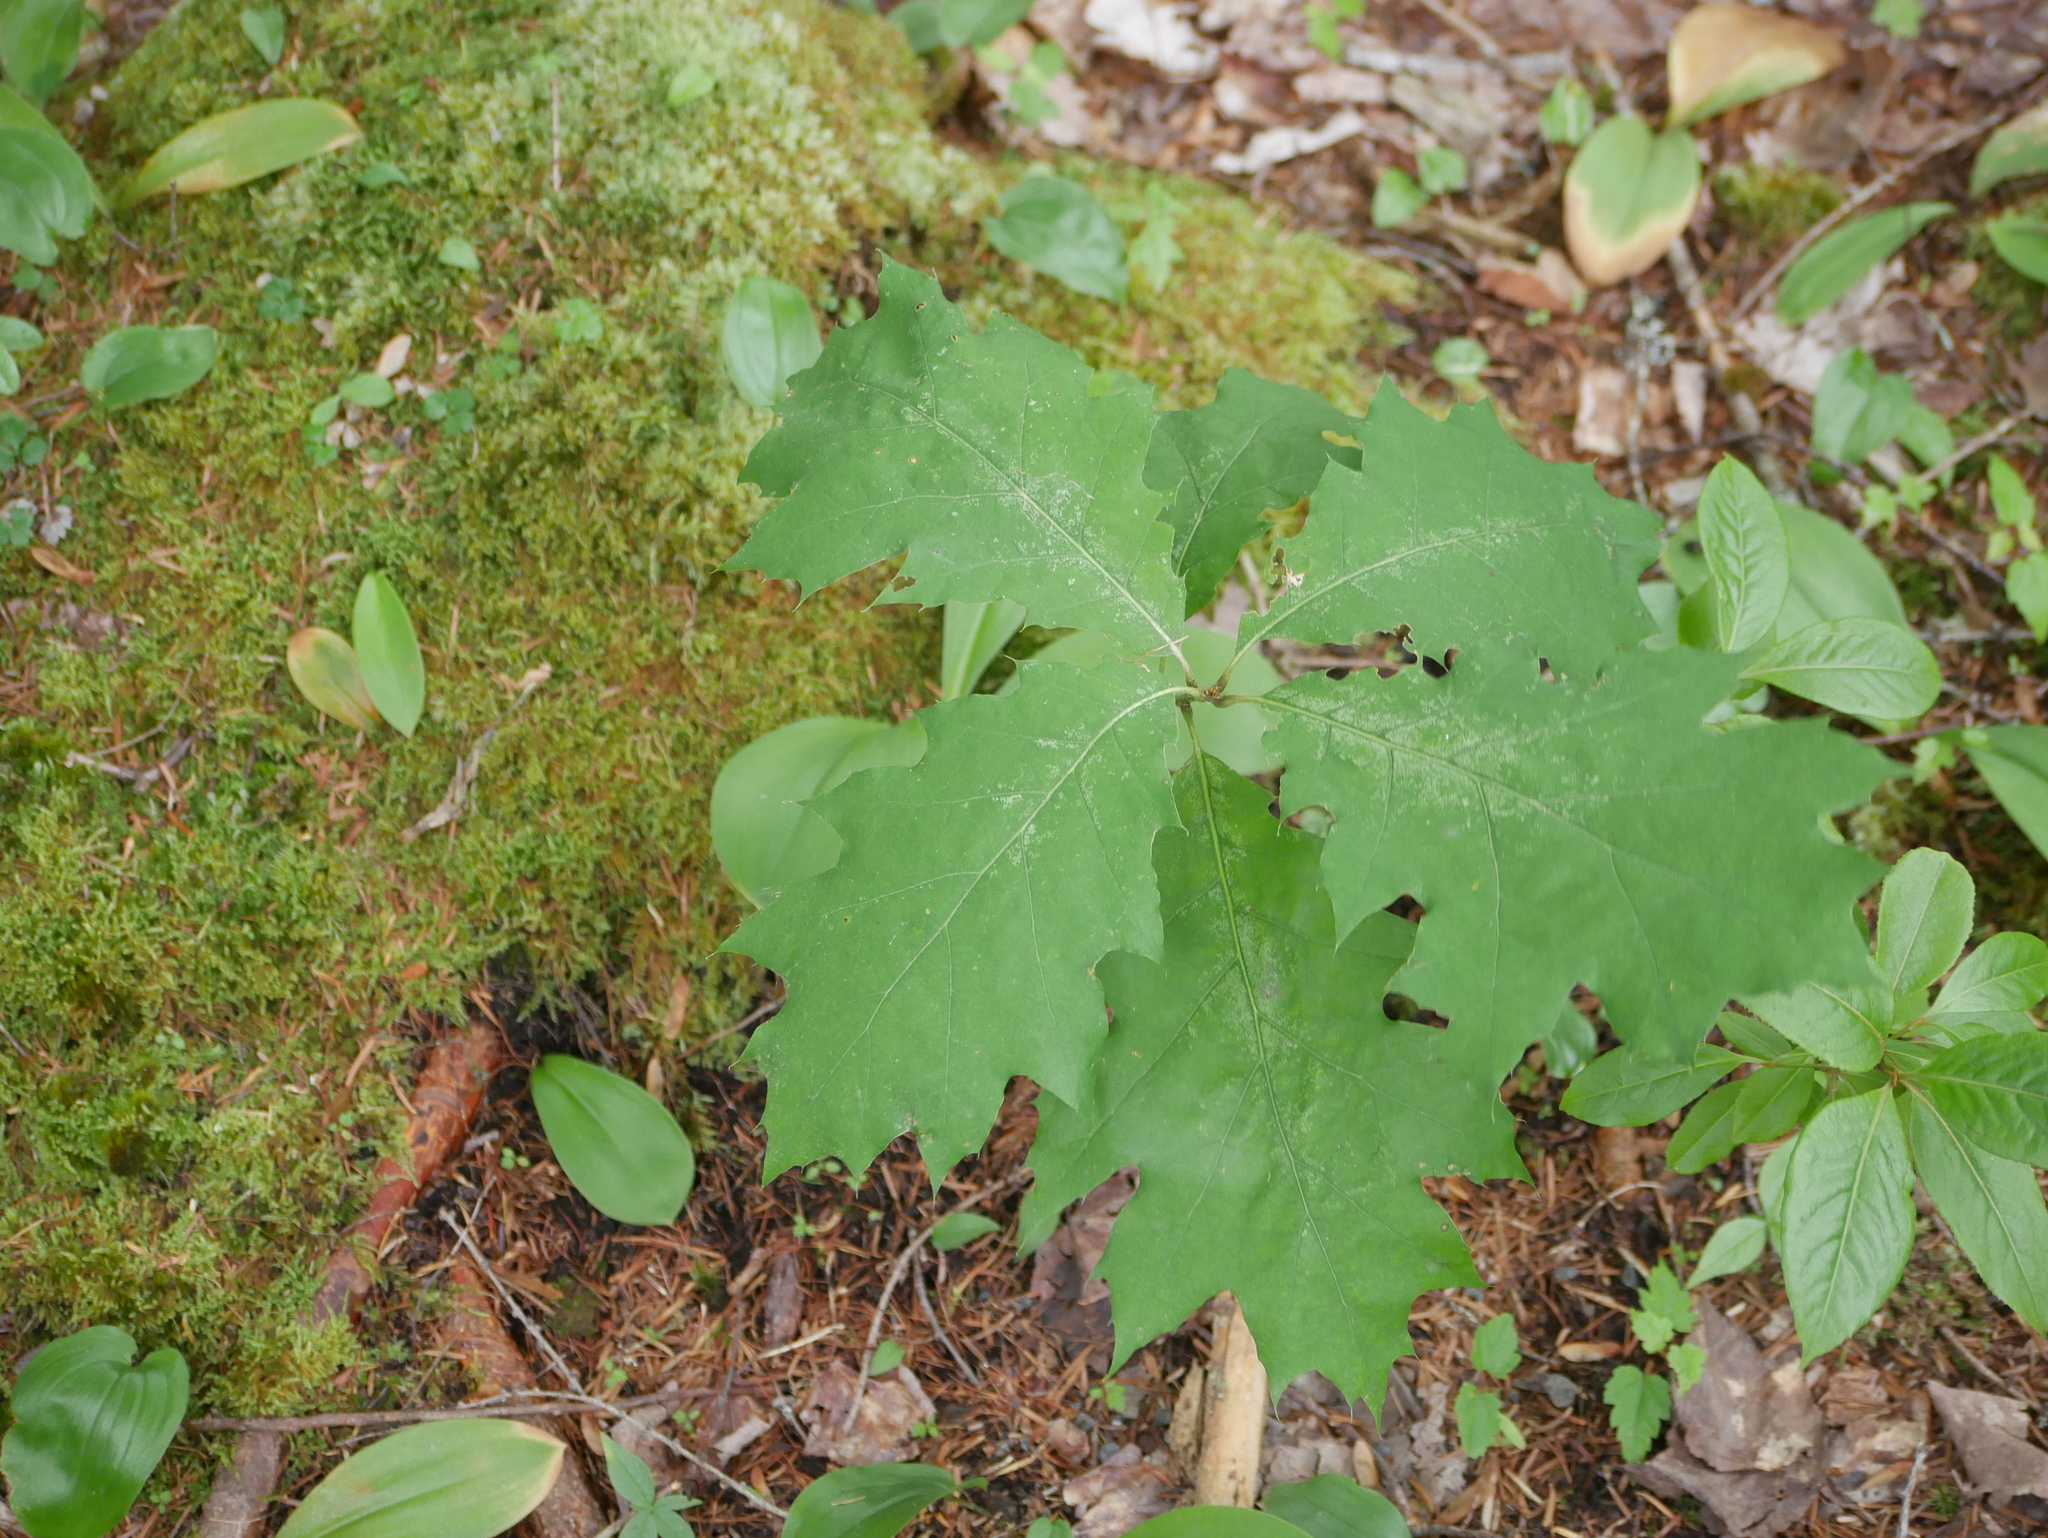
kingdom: Plantae
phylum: Tracheophyta
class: Magnoliopsida
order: Fagales
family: Fagaceae
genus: Quercus
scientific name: Quercus rubra
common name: Red oak
